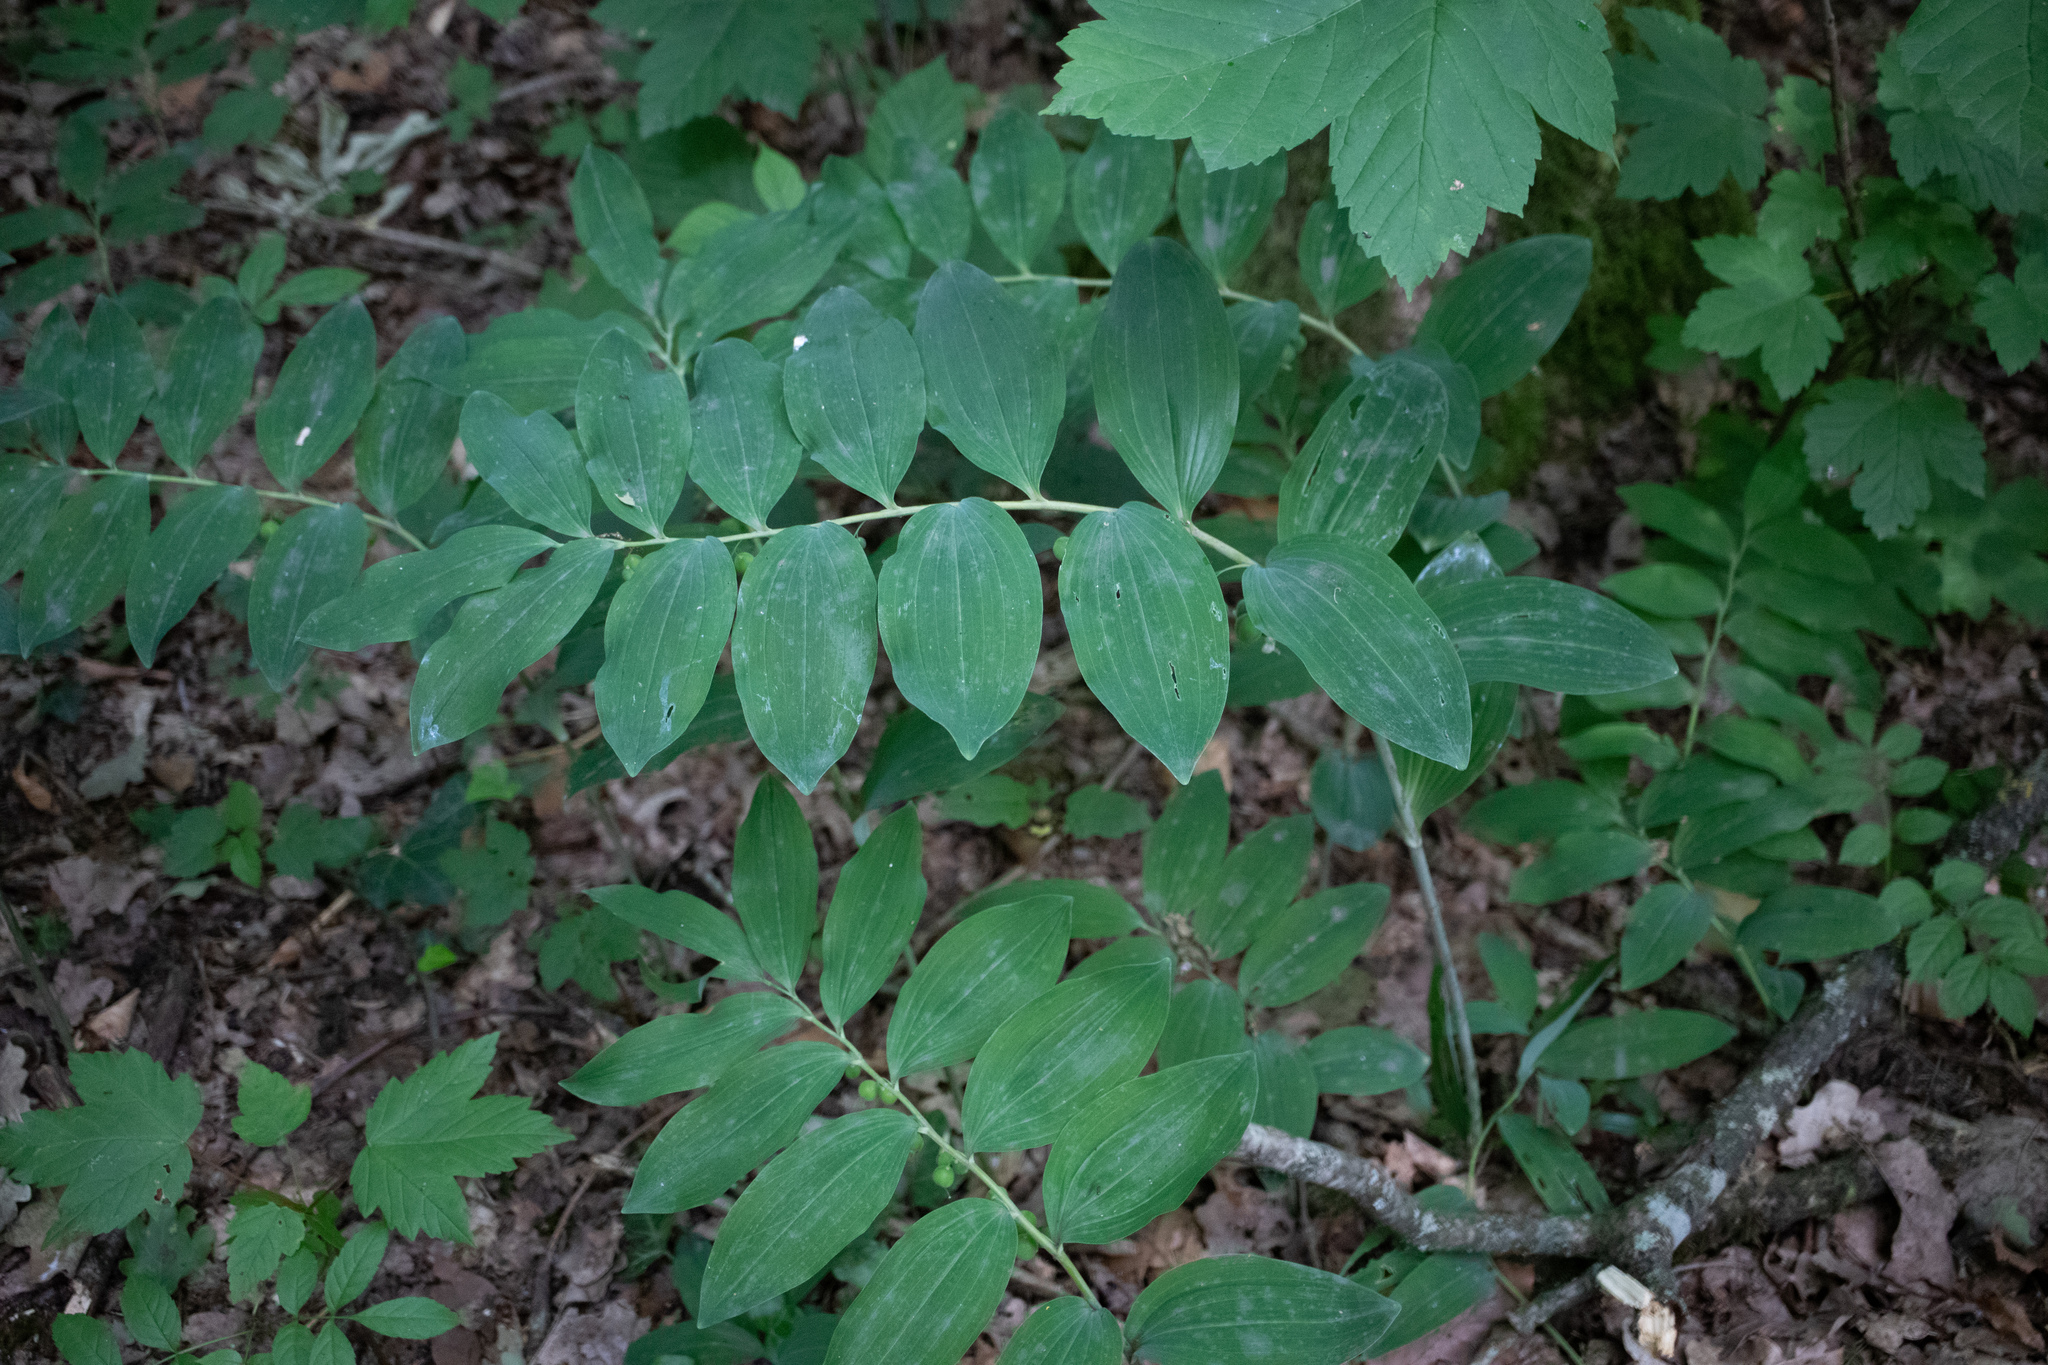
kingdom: Plantae
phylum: Tracheophyta
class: Liliopsida
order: Asparagales
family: Asparagaceae
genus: Polygonatum
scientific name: Polygonatum multiflorum
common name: Solomon's-seal
